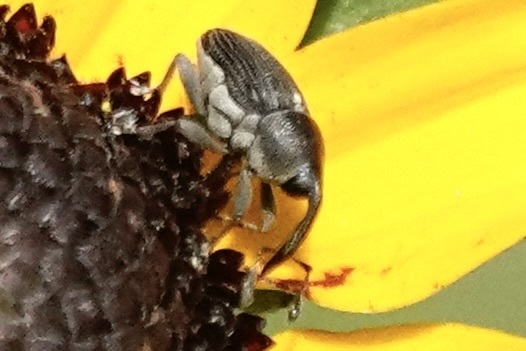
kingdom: Animalia
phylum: Arthropoda
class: Insecta
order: Coleoptera
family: Curculionidae
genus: Odontocorynus
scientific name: Odontocorynus umbellae
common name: Daisy flower weevil
